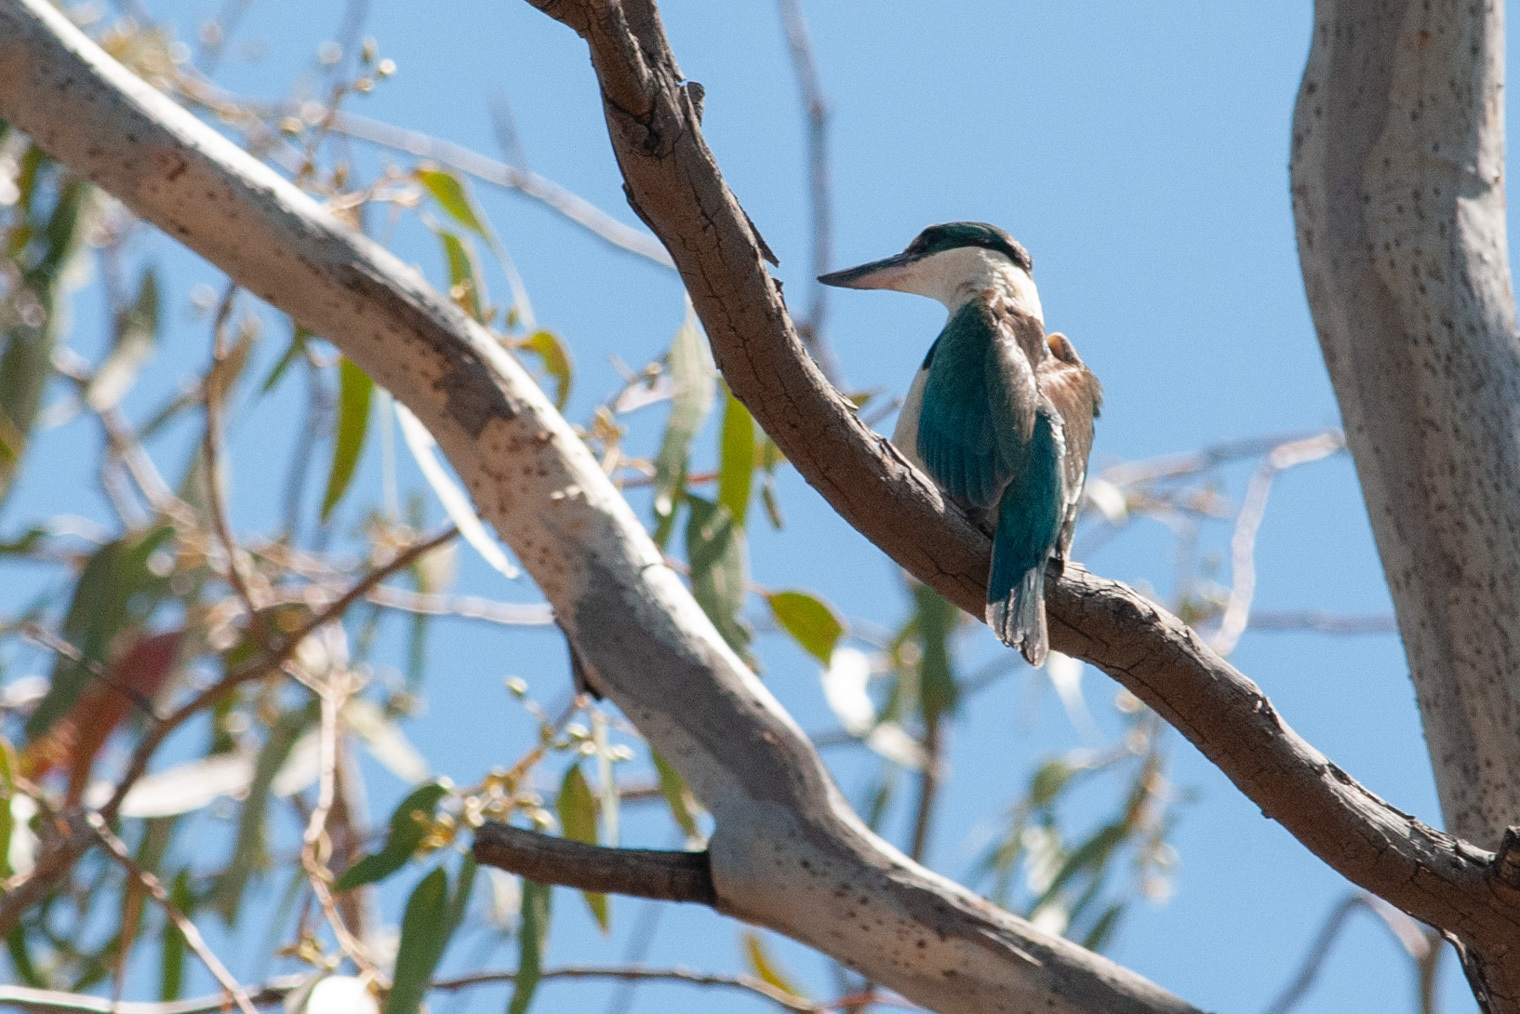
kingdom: Animalia
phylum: Chordata
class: Aves
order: Coraciiformes
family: Alcedinidae
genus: Todiramphus
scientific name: Todiramphus sanctus
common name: Sacred kingfisher
